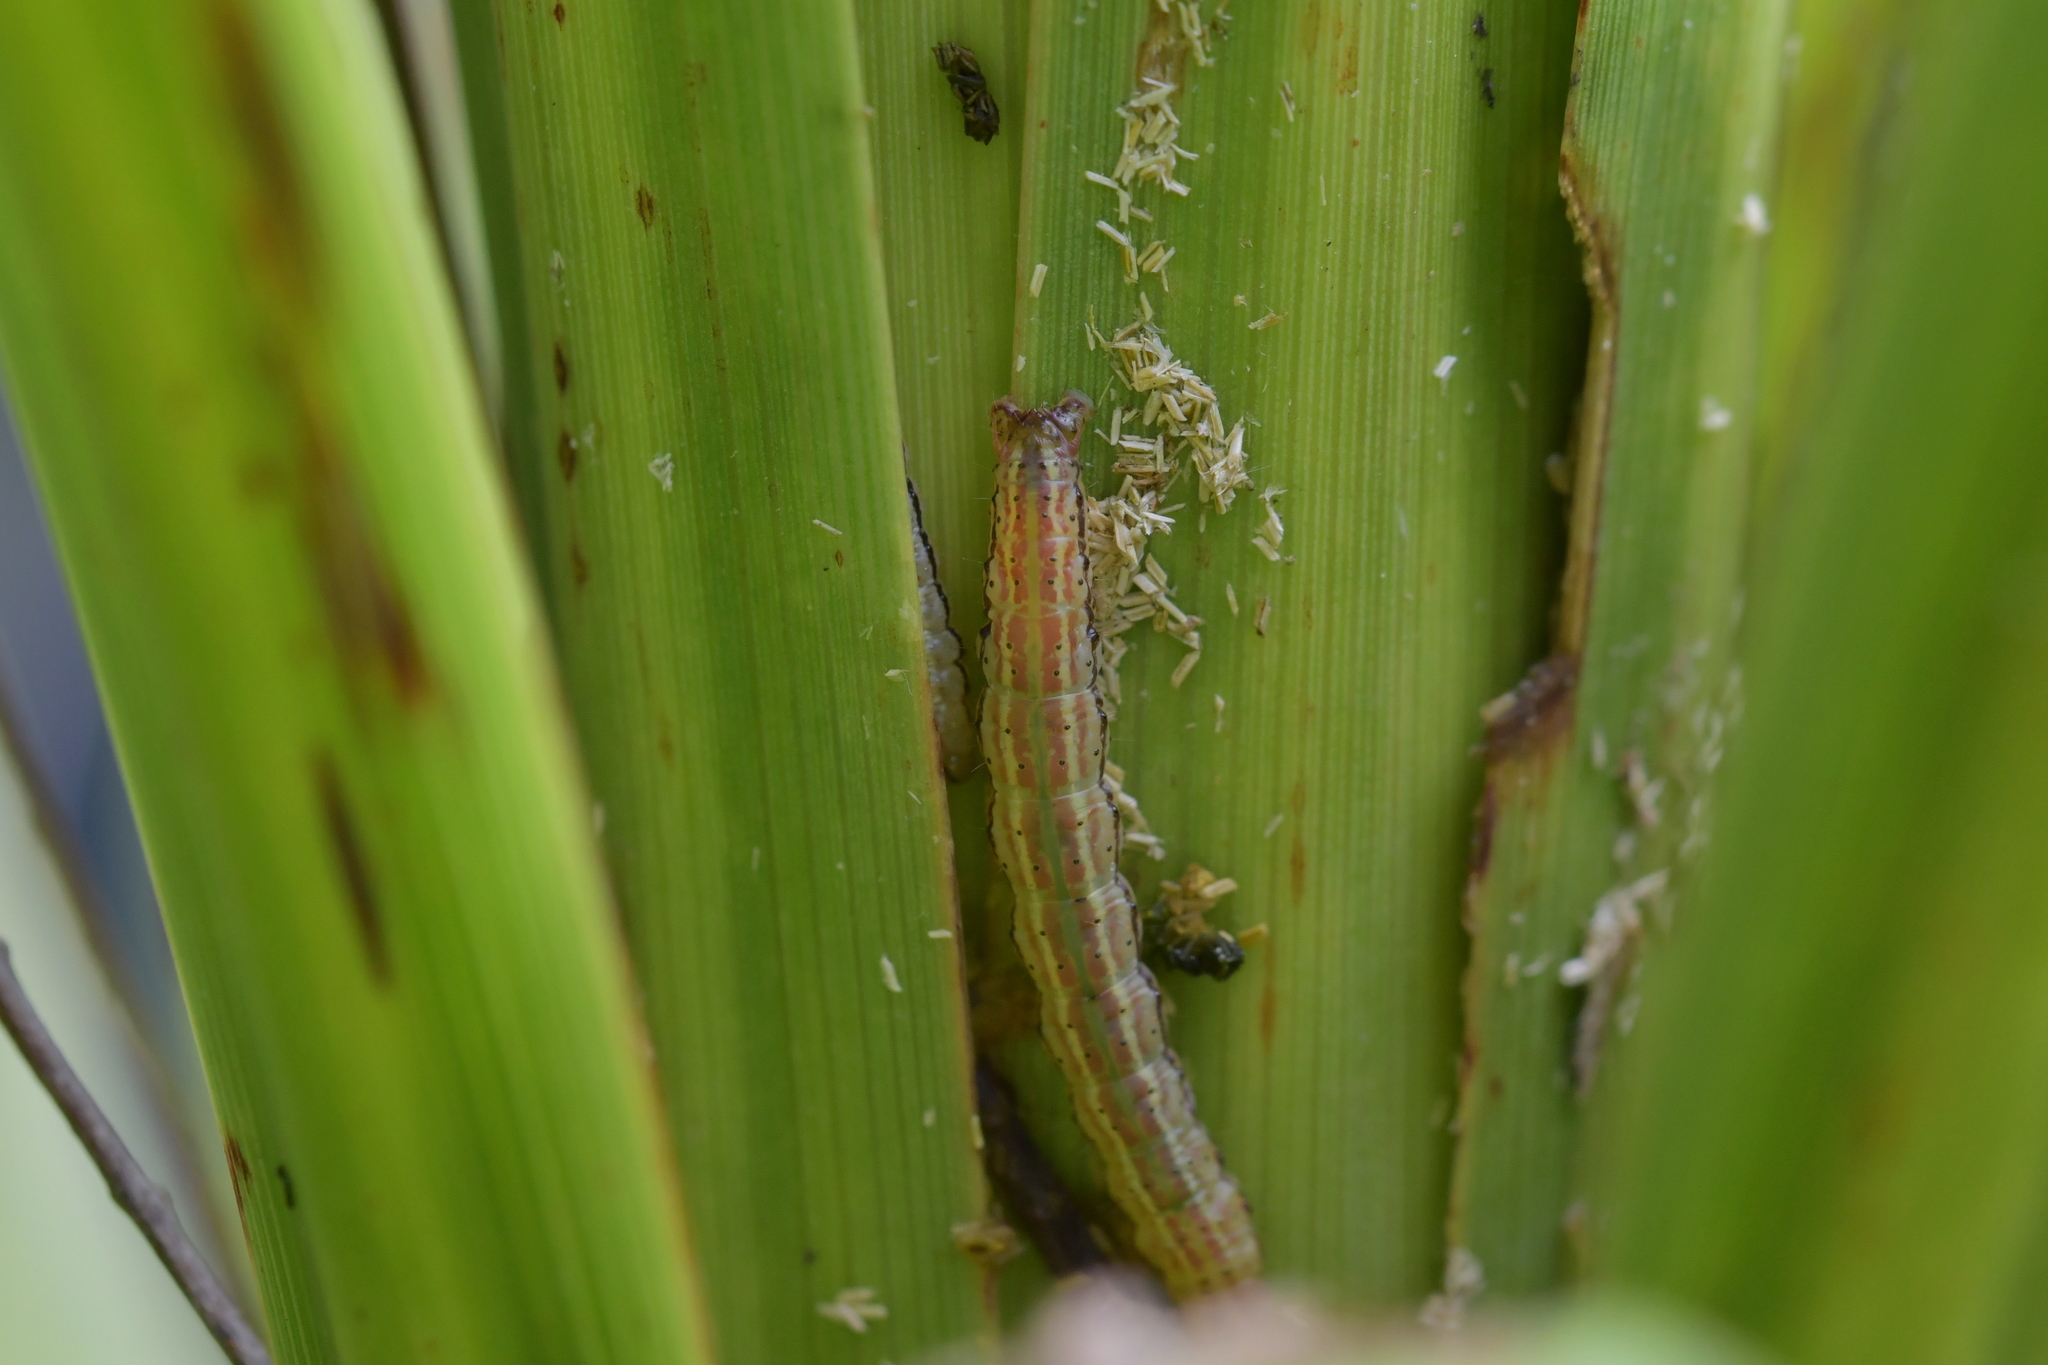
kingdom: Animalia
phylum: Arthropoda
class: Insecta
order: Lepidoptera
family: Geometridae
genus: Epiphryne
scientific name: Epiphryne verriculata
